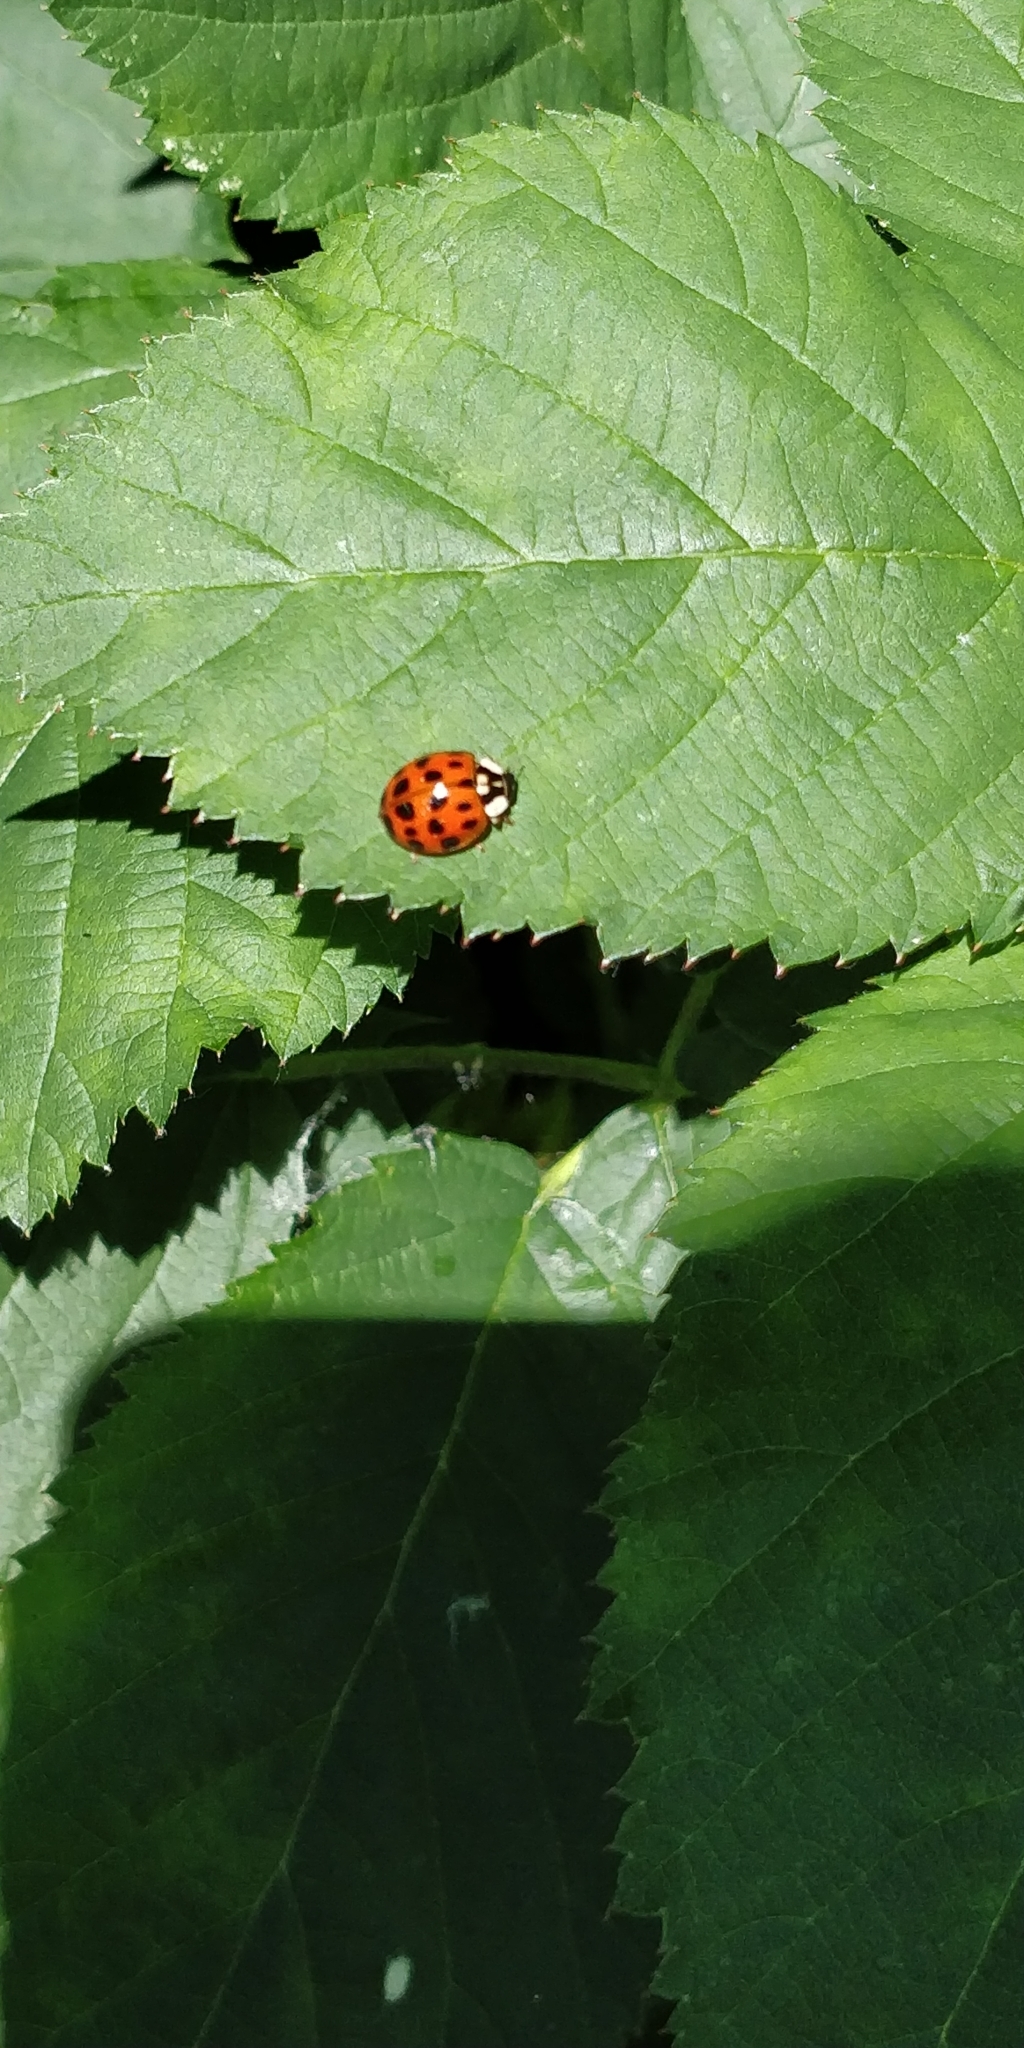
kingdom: Animalia
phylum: Arthropoda
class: Insecta
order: Coleoptera
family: Coccinellidae
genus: Harmonia
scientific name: Harmonia axyridis
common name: Harlequin ladybird
